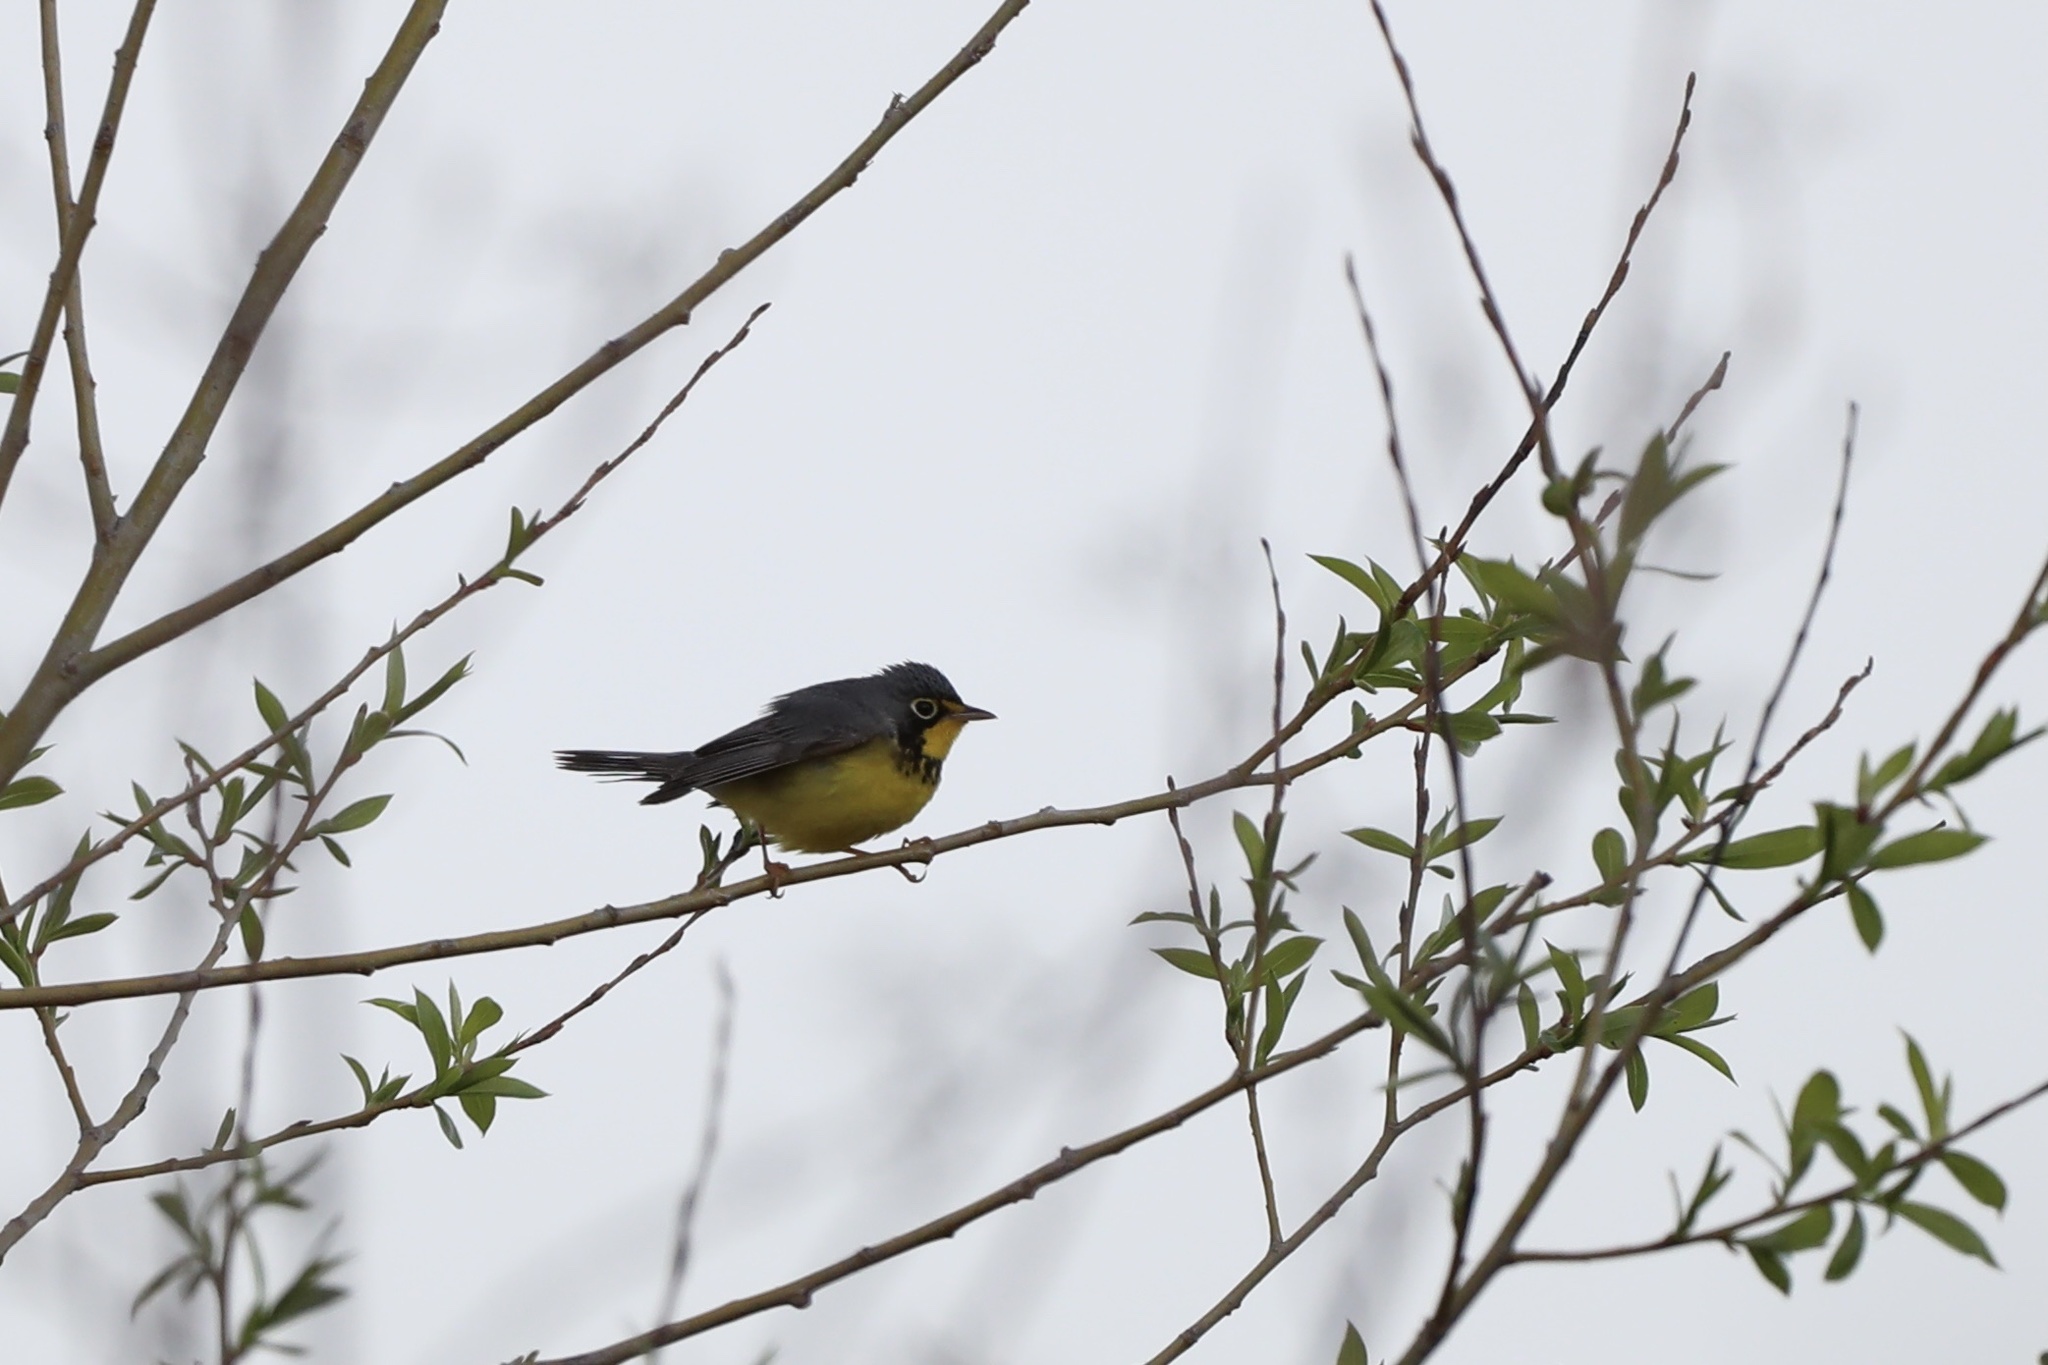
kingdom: Animalia
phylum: Chordata
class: Aves
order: Passeriformes
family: Parulidae
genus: Cardellina
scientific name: Cardellina canadensis
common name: Canada warbler
